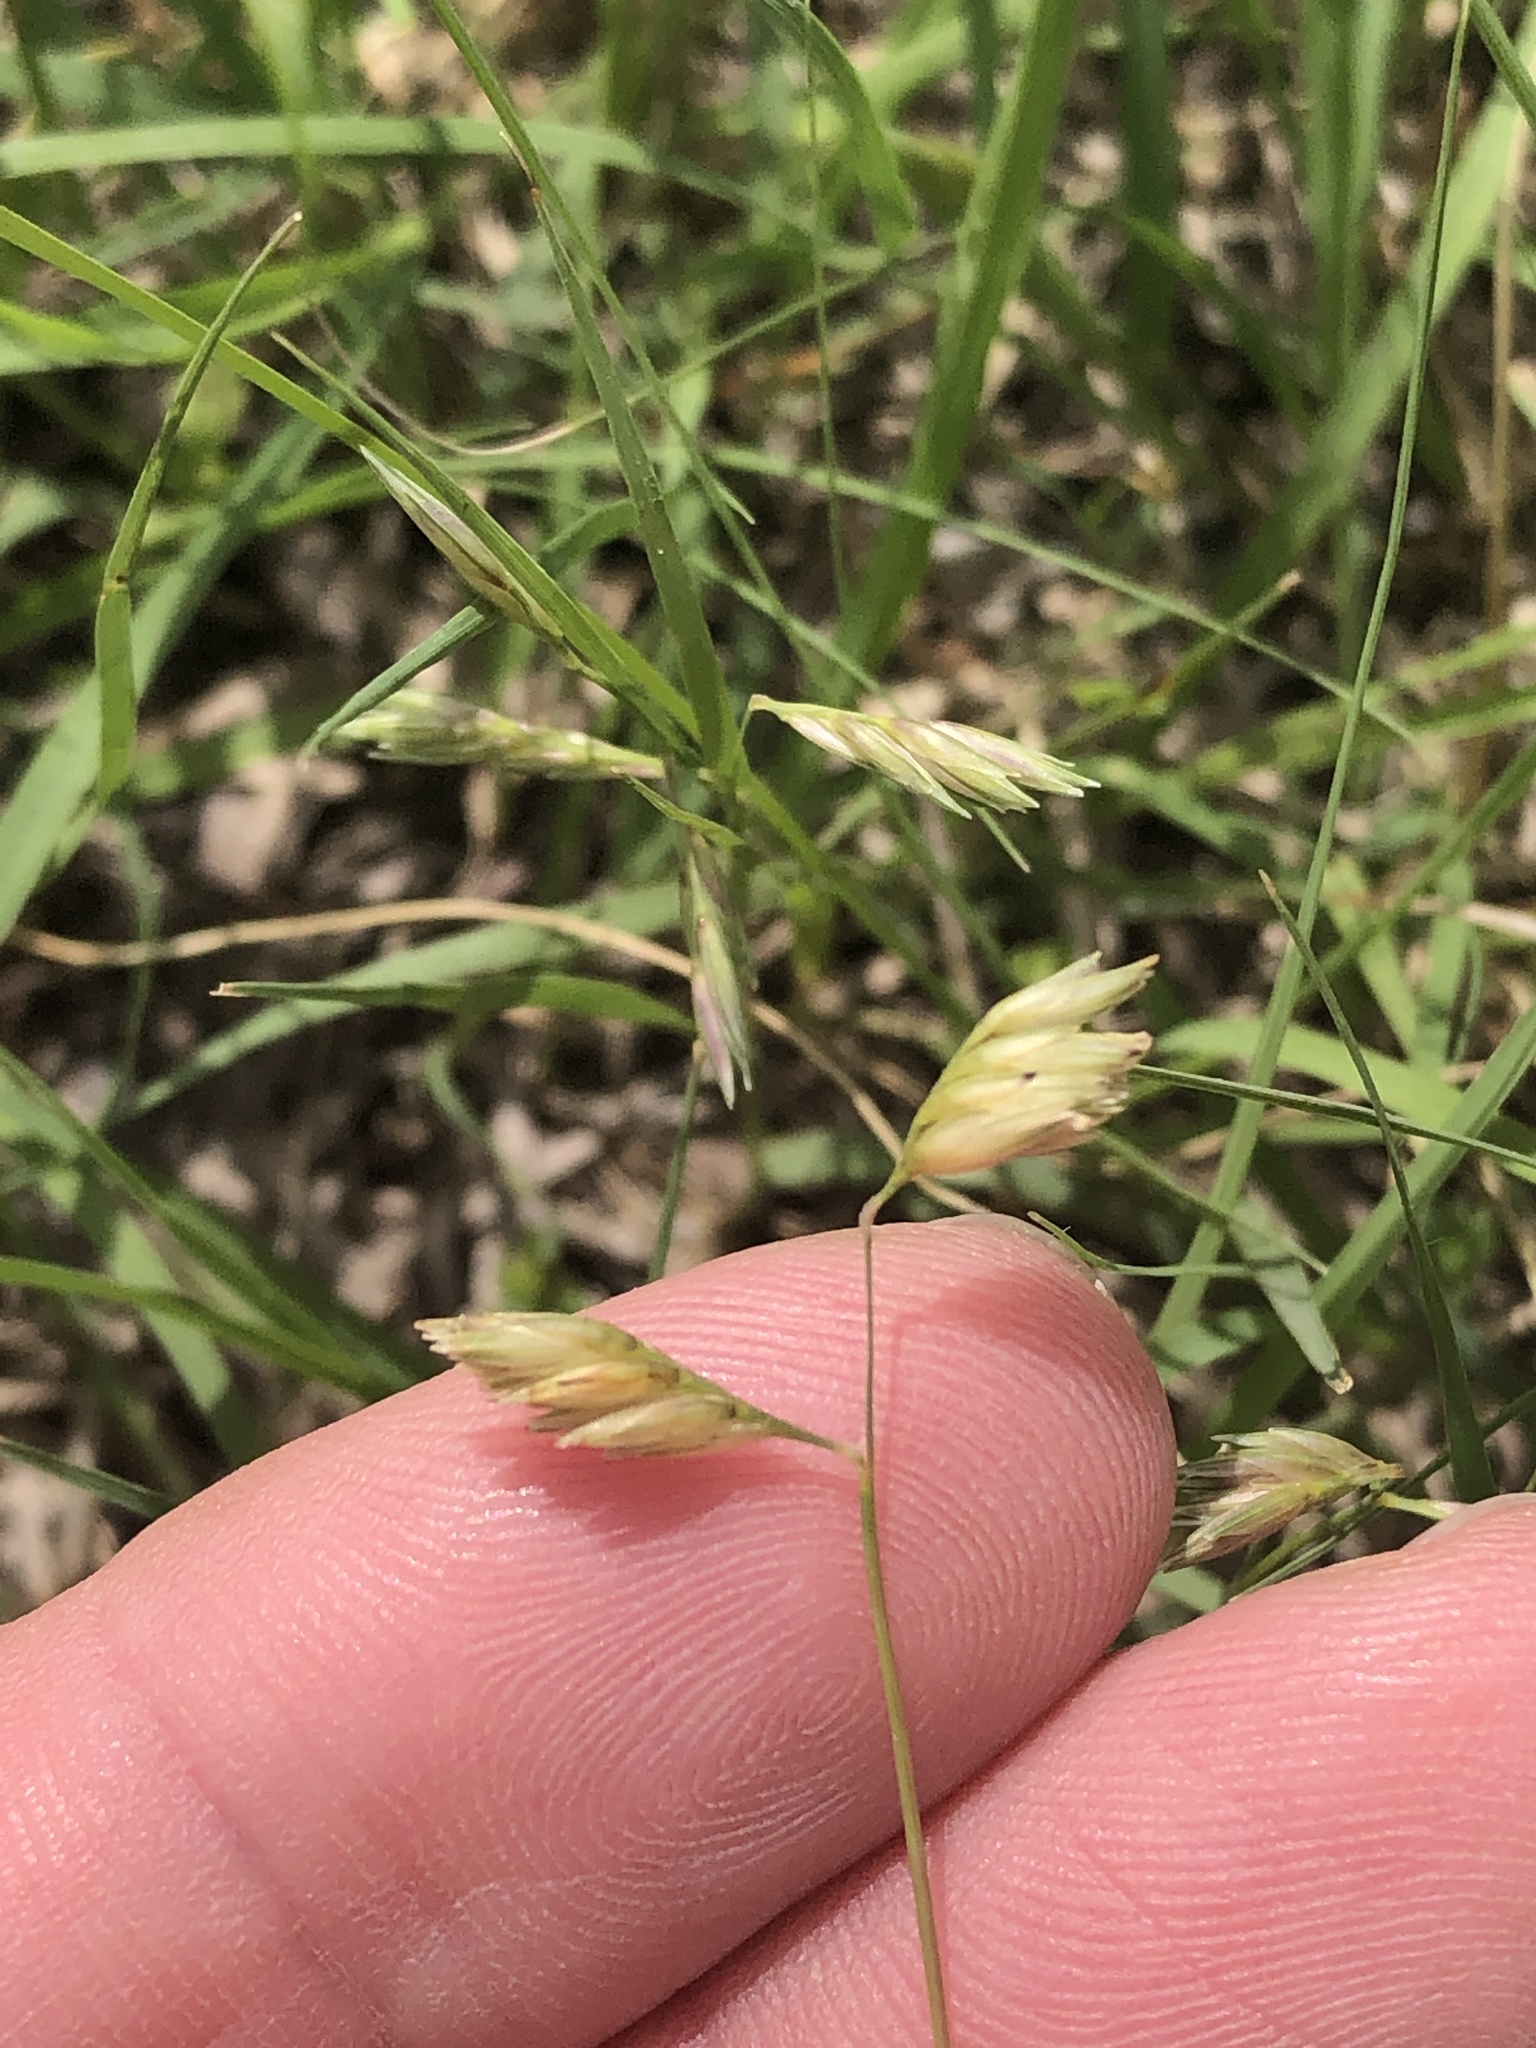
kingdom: Plantae
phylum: Tracheophyta
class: Liliopsida
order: Poales
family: Poaceae
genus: Bouteloua
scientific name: Bouteloua dactyloides
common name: Buffalo grass
